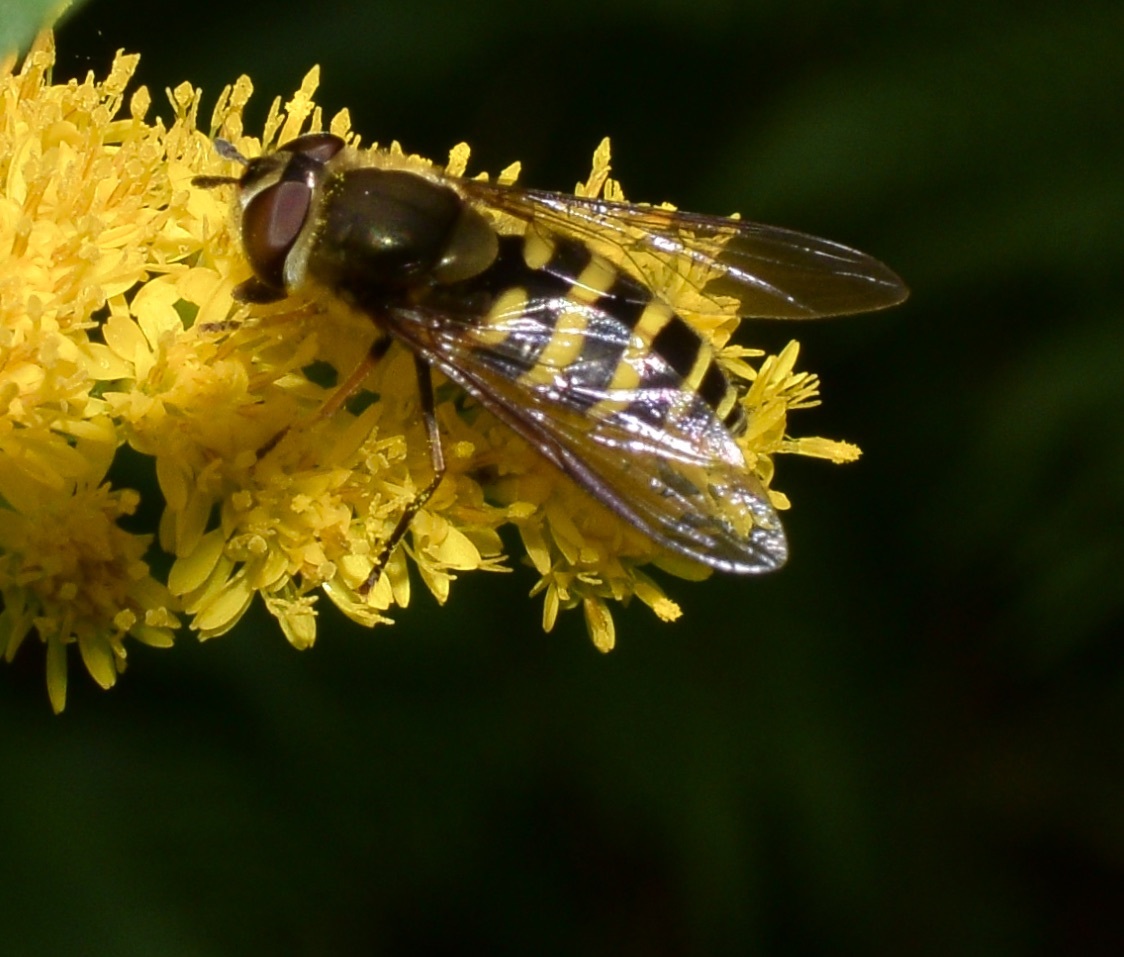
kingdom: Animalia
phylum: Arthropoda
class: Insecta
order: Diptera
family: Syrphidae
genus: Syrphus
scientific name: Syrphus torvus
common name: Hairy-eyed flower fly
